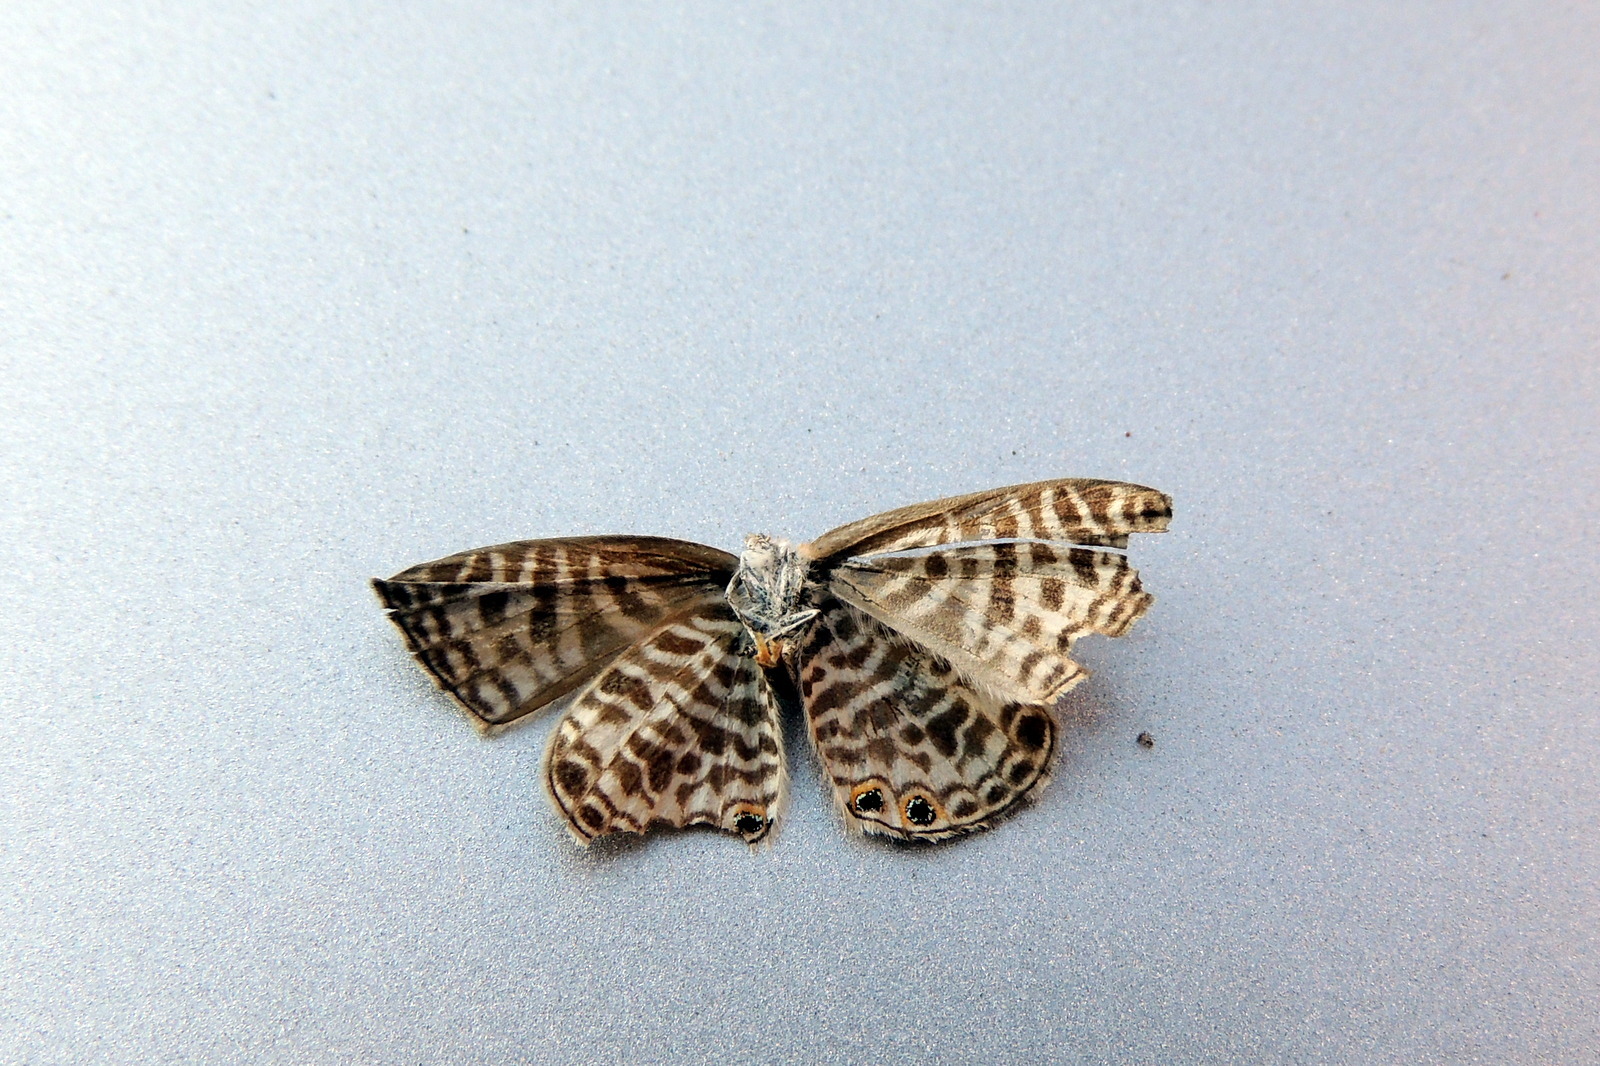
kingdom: Animalia
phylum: Arthropoda
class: Insecta
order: Lepidoptera
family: Lycaenidae
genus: Leptotes
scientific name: Leptotes plinius
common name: Zebra blue
